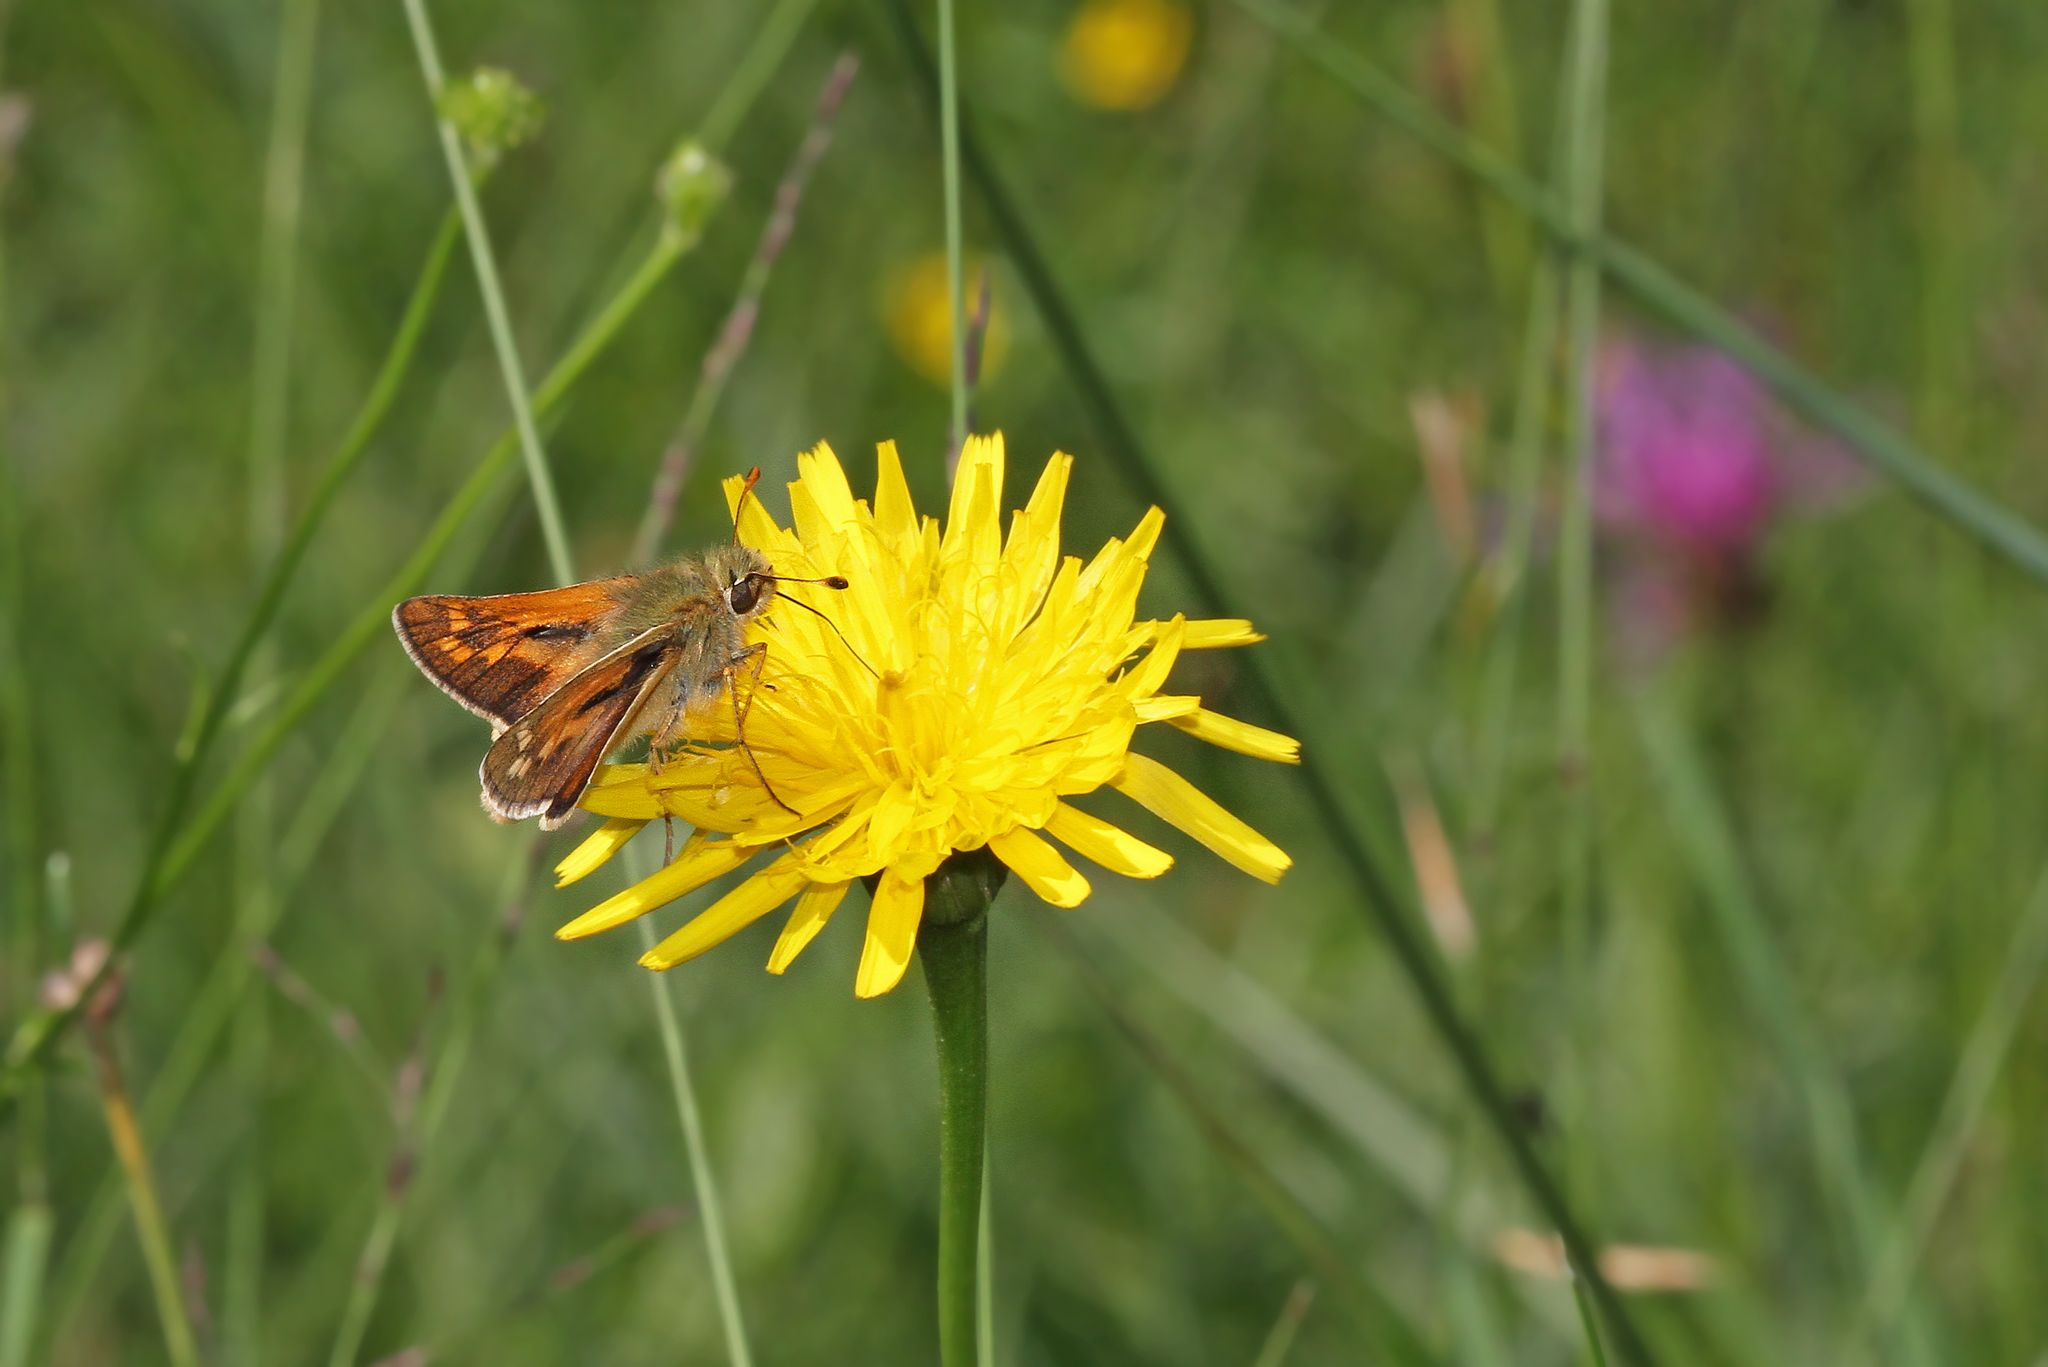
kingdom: Animalia
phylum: Arthropoda
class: Insecta
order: Lepidoptera
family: Hesperiidae
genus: Hesperia
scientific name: Hesperia comma
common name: Common branded skipper
